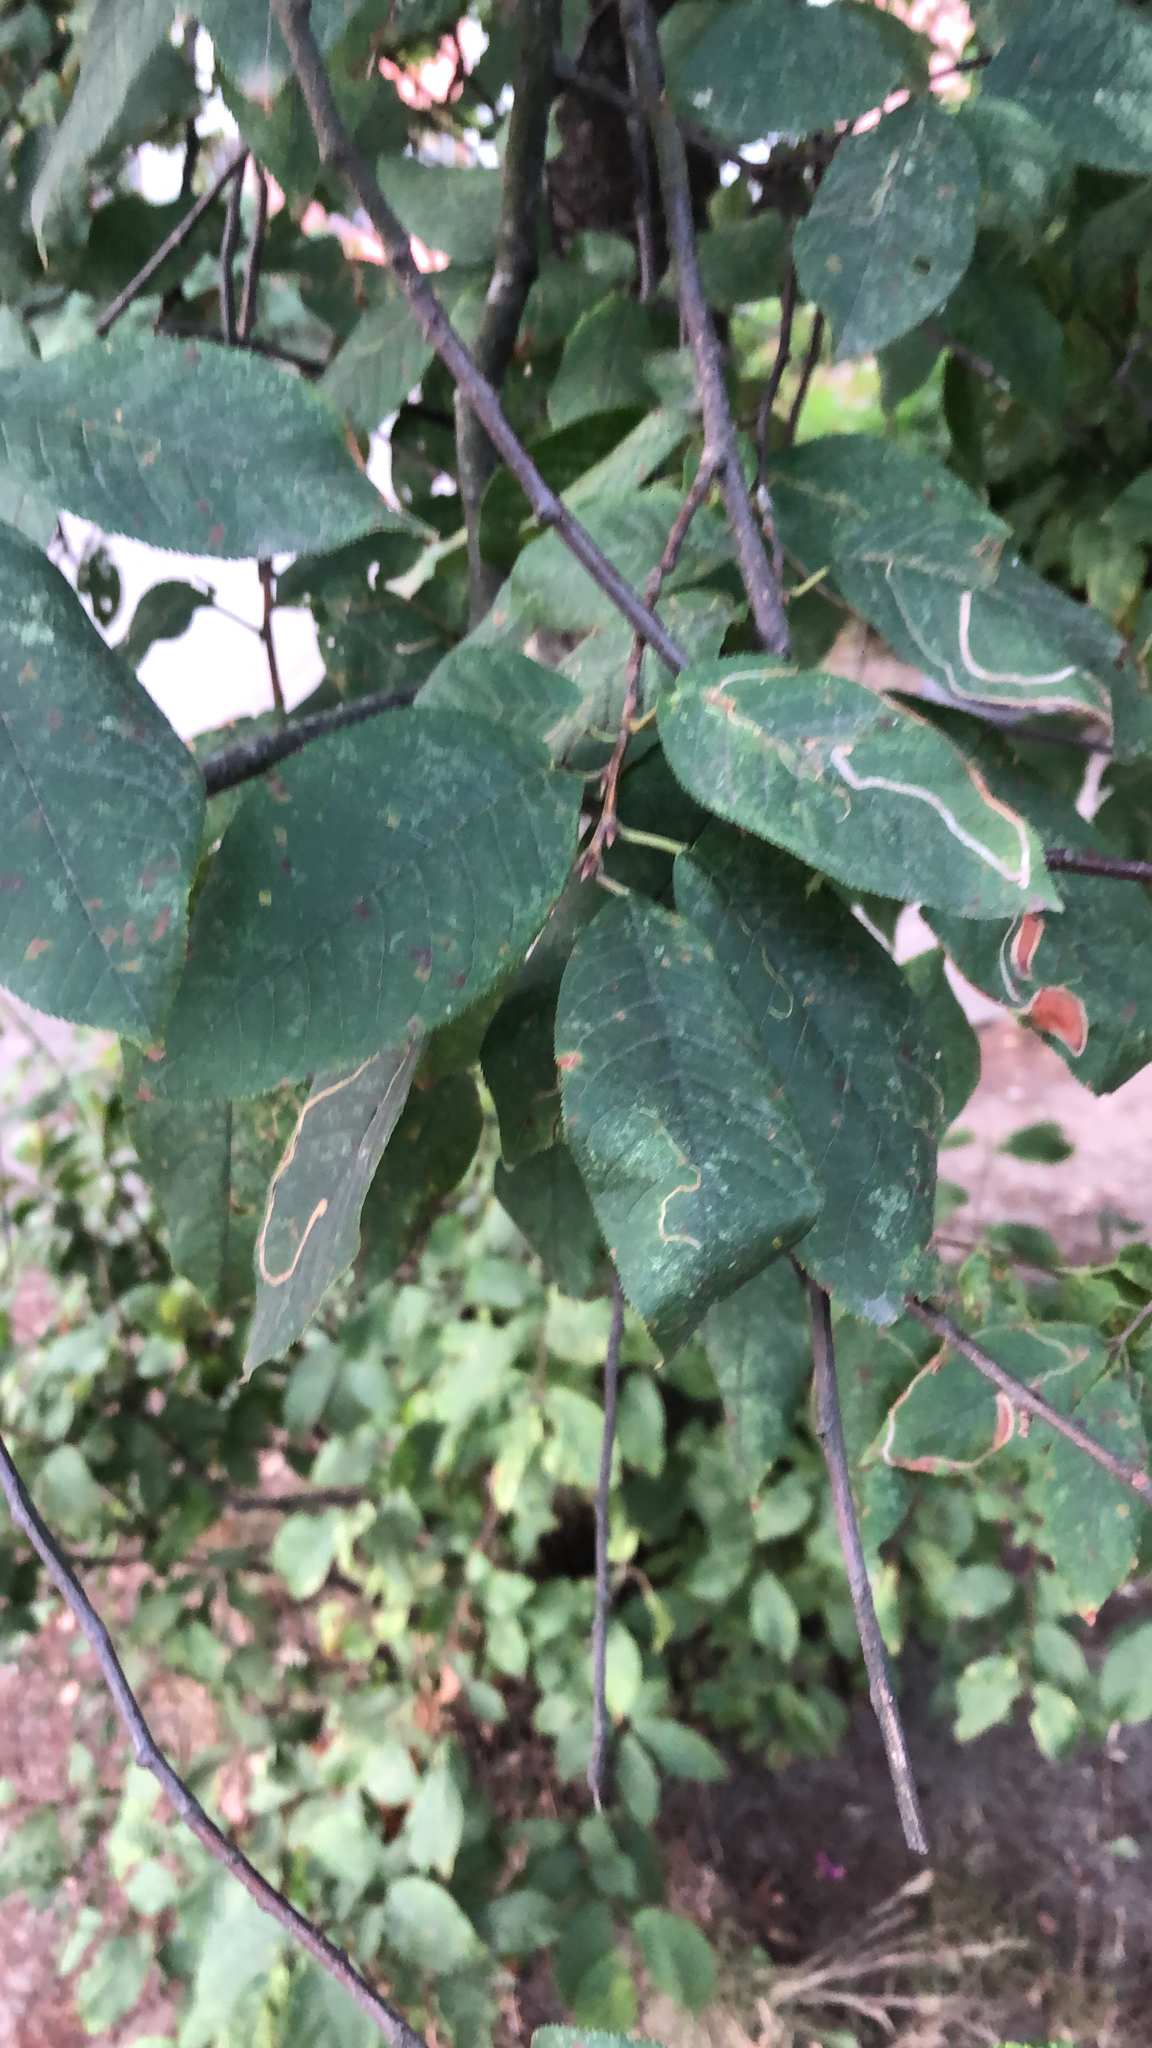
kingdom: Plantae
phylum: Tracheophyta
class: Magnoliopsida
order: Rosales
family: Rosaceae
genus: Prunus
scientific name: Prunus padus
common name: Bird cherry
